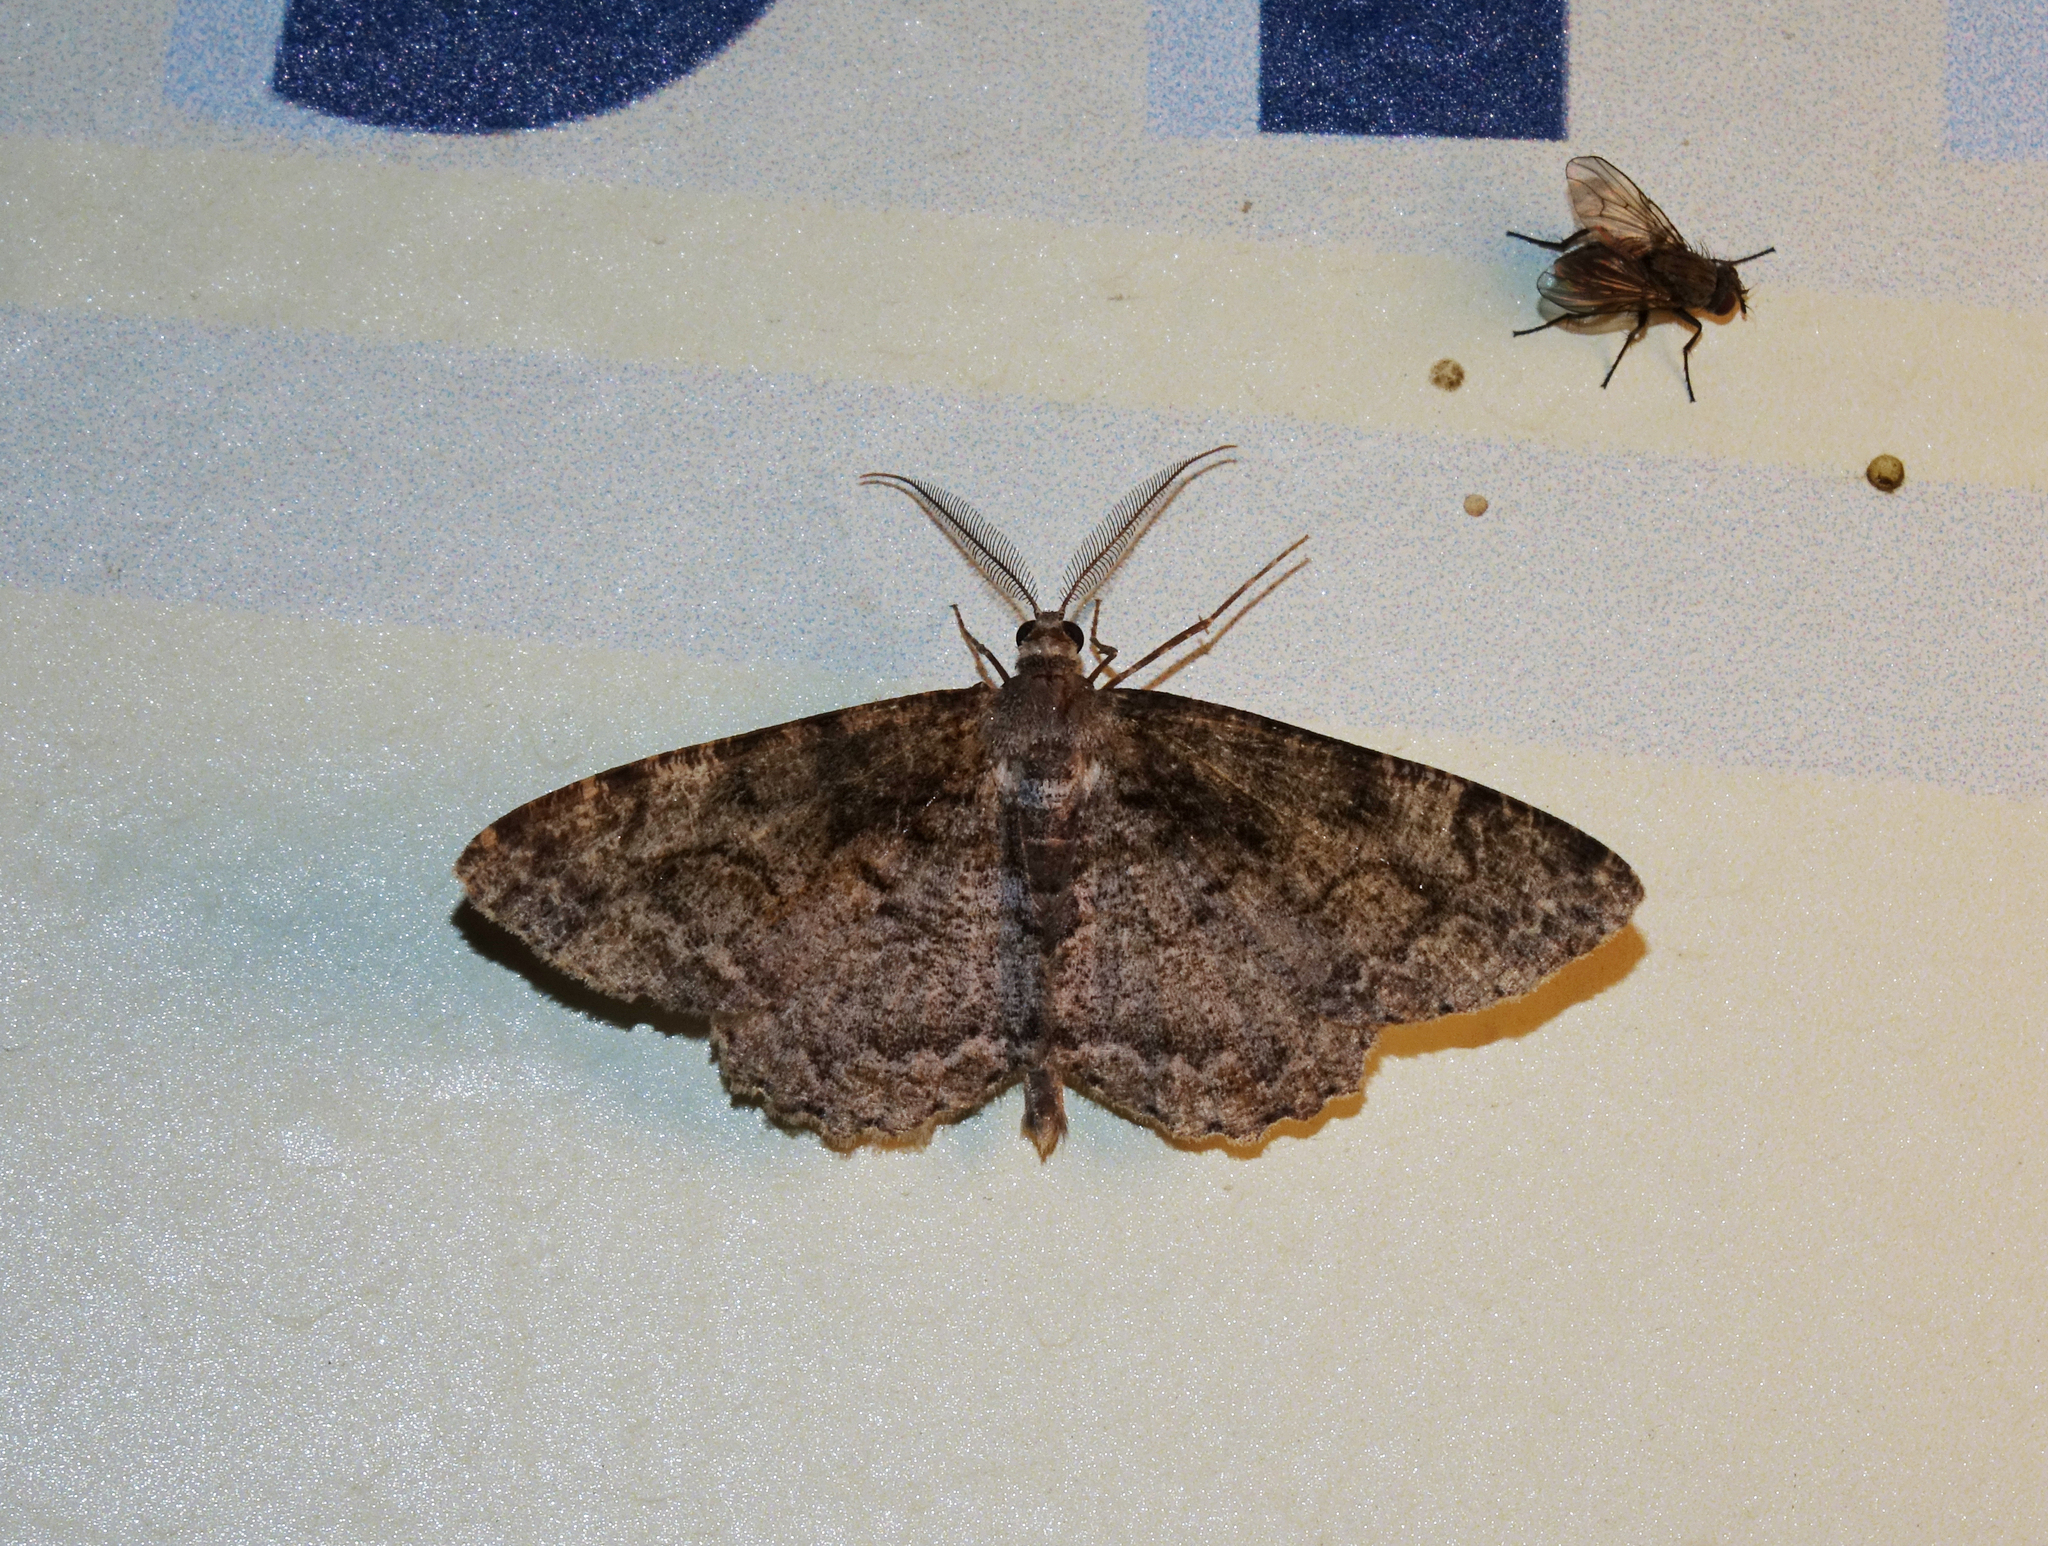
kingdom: Animalia
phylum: Arthropoda
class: Insecta
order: Lepidoptera
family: Geometridae
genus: Alcis
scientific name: Alcis repandata
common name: Mottled beauty
